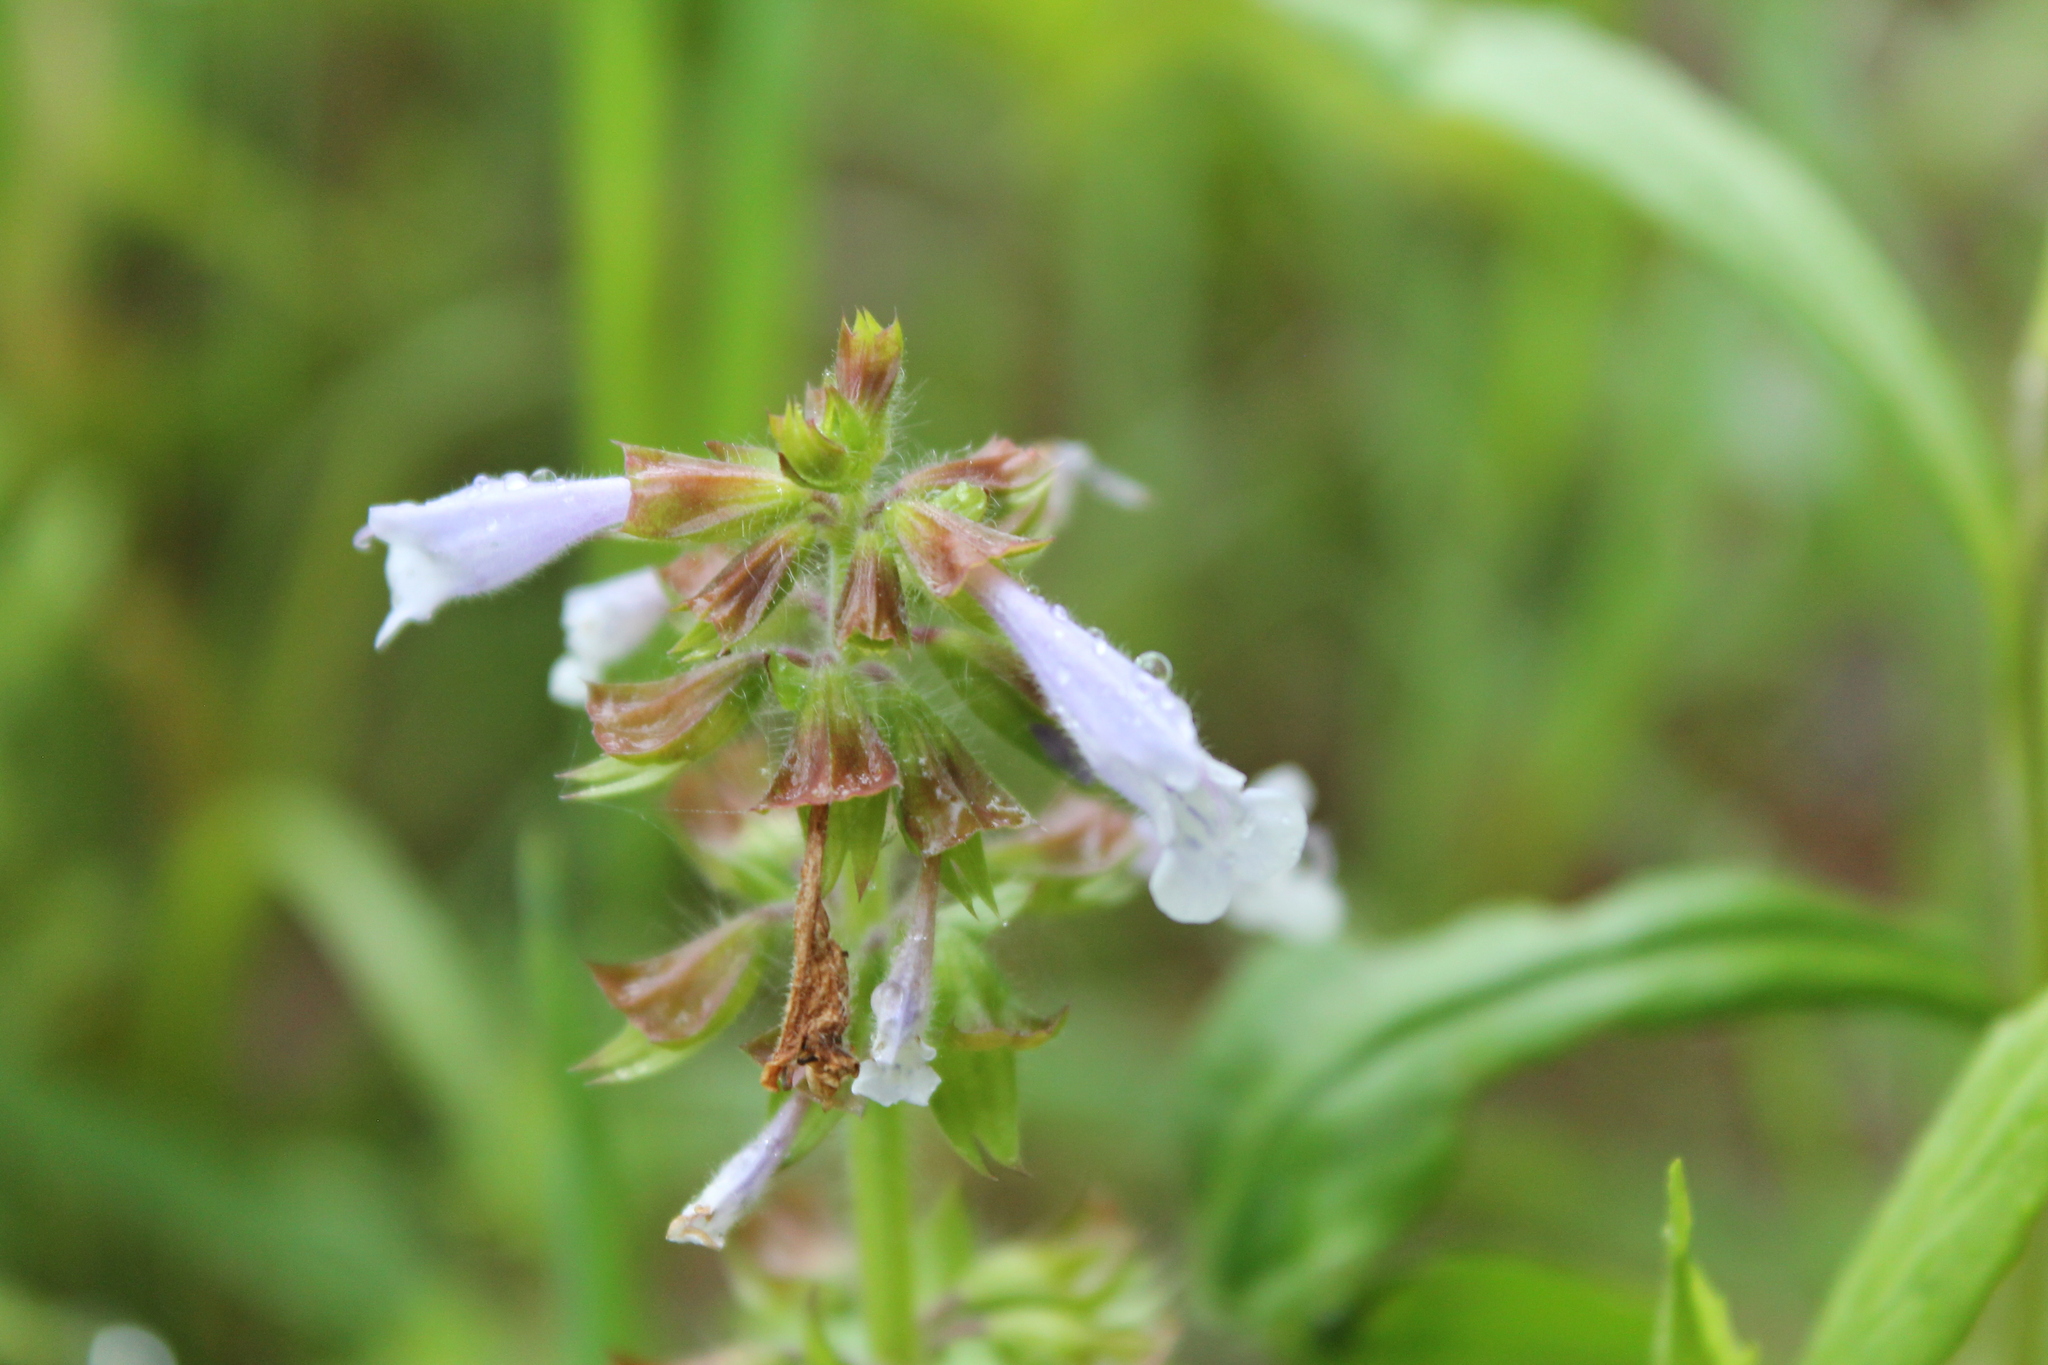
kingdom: Plantae
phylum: Tracheophyta
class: Magnoliopsida
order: Lamiales
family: Lamiaceae
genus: Salvia
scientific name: Salvia lyrata
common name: Cancerweed
